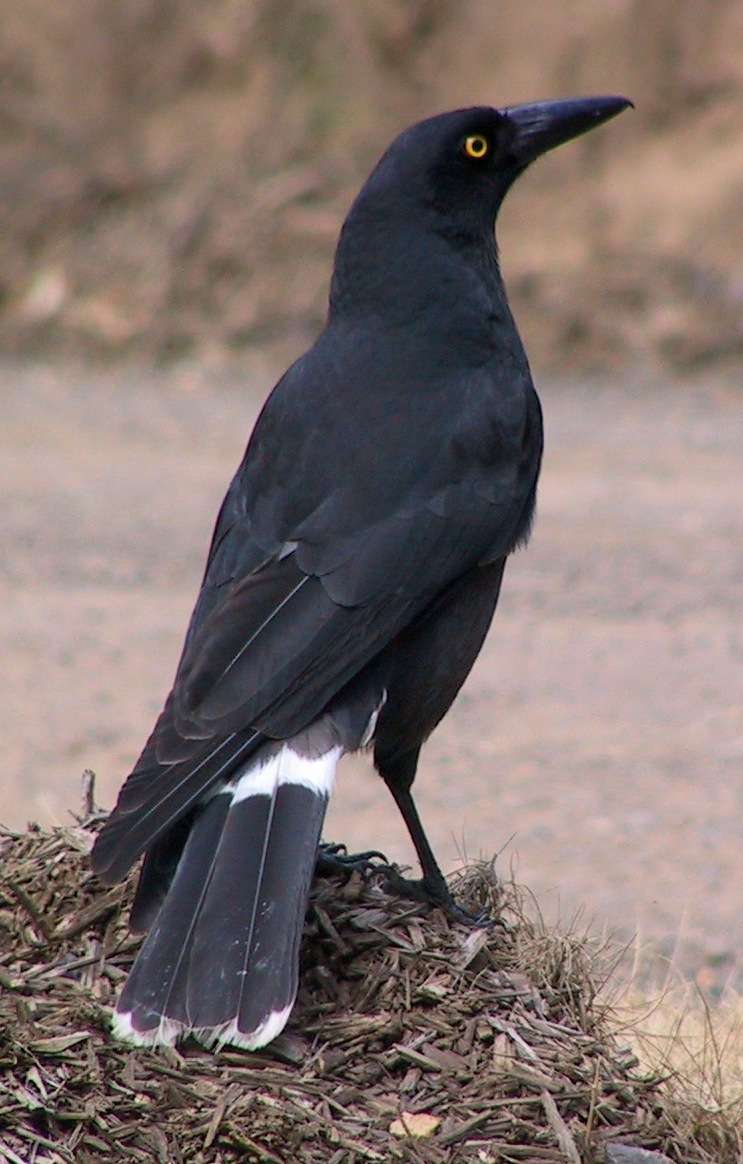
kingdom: Animalia
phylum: Chordata
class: Aves
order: Passeriformes
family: Cracticidae
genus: Strepera
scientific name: Strepera graculina
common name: Pied currawong
